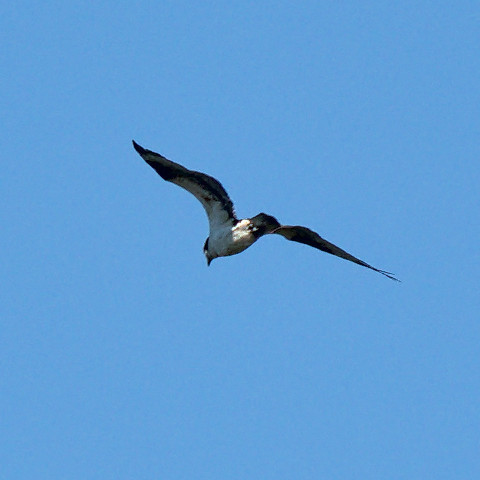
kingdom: Animalia
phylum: Chordata
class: Aves
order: Accipitriformes
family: Pandionidae
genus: Pandion
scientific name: Pandion haliaetus
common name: Osprey
